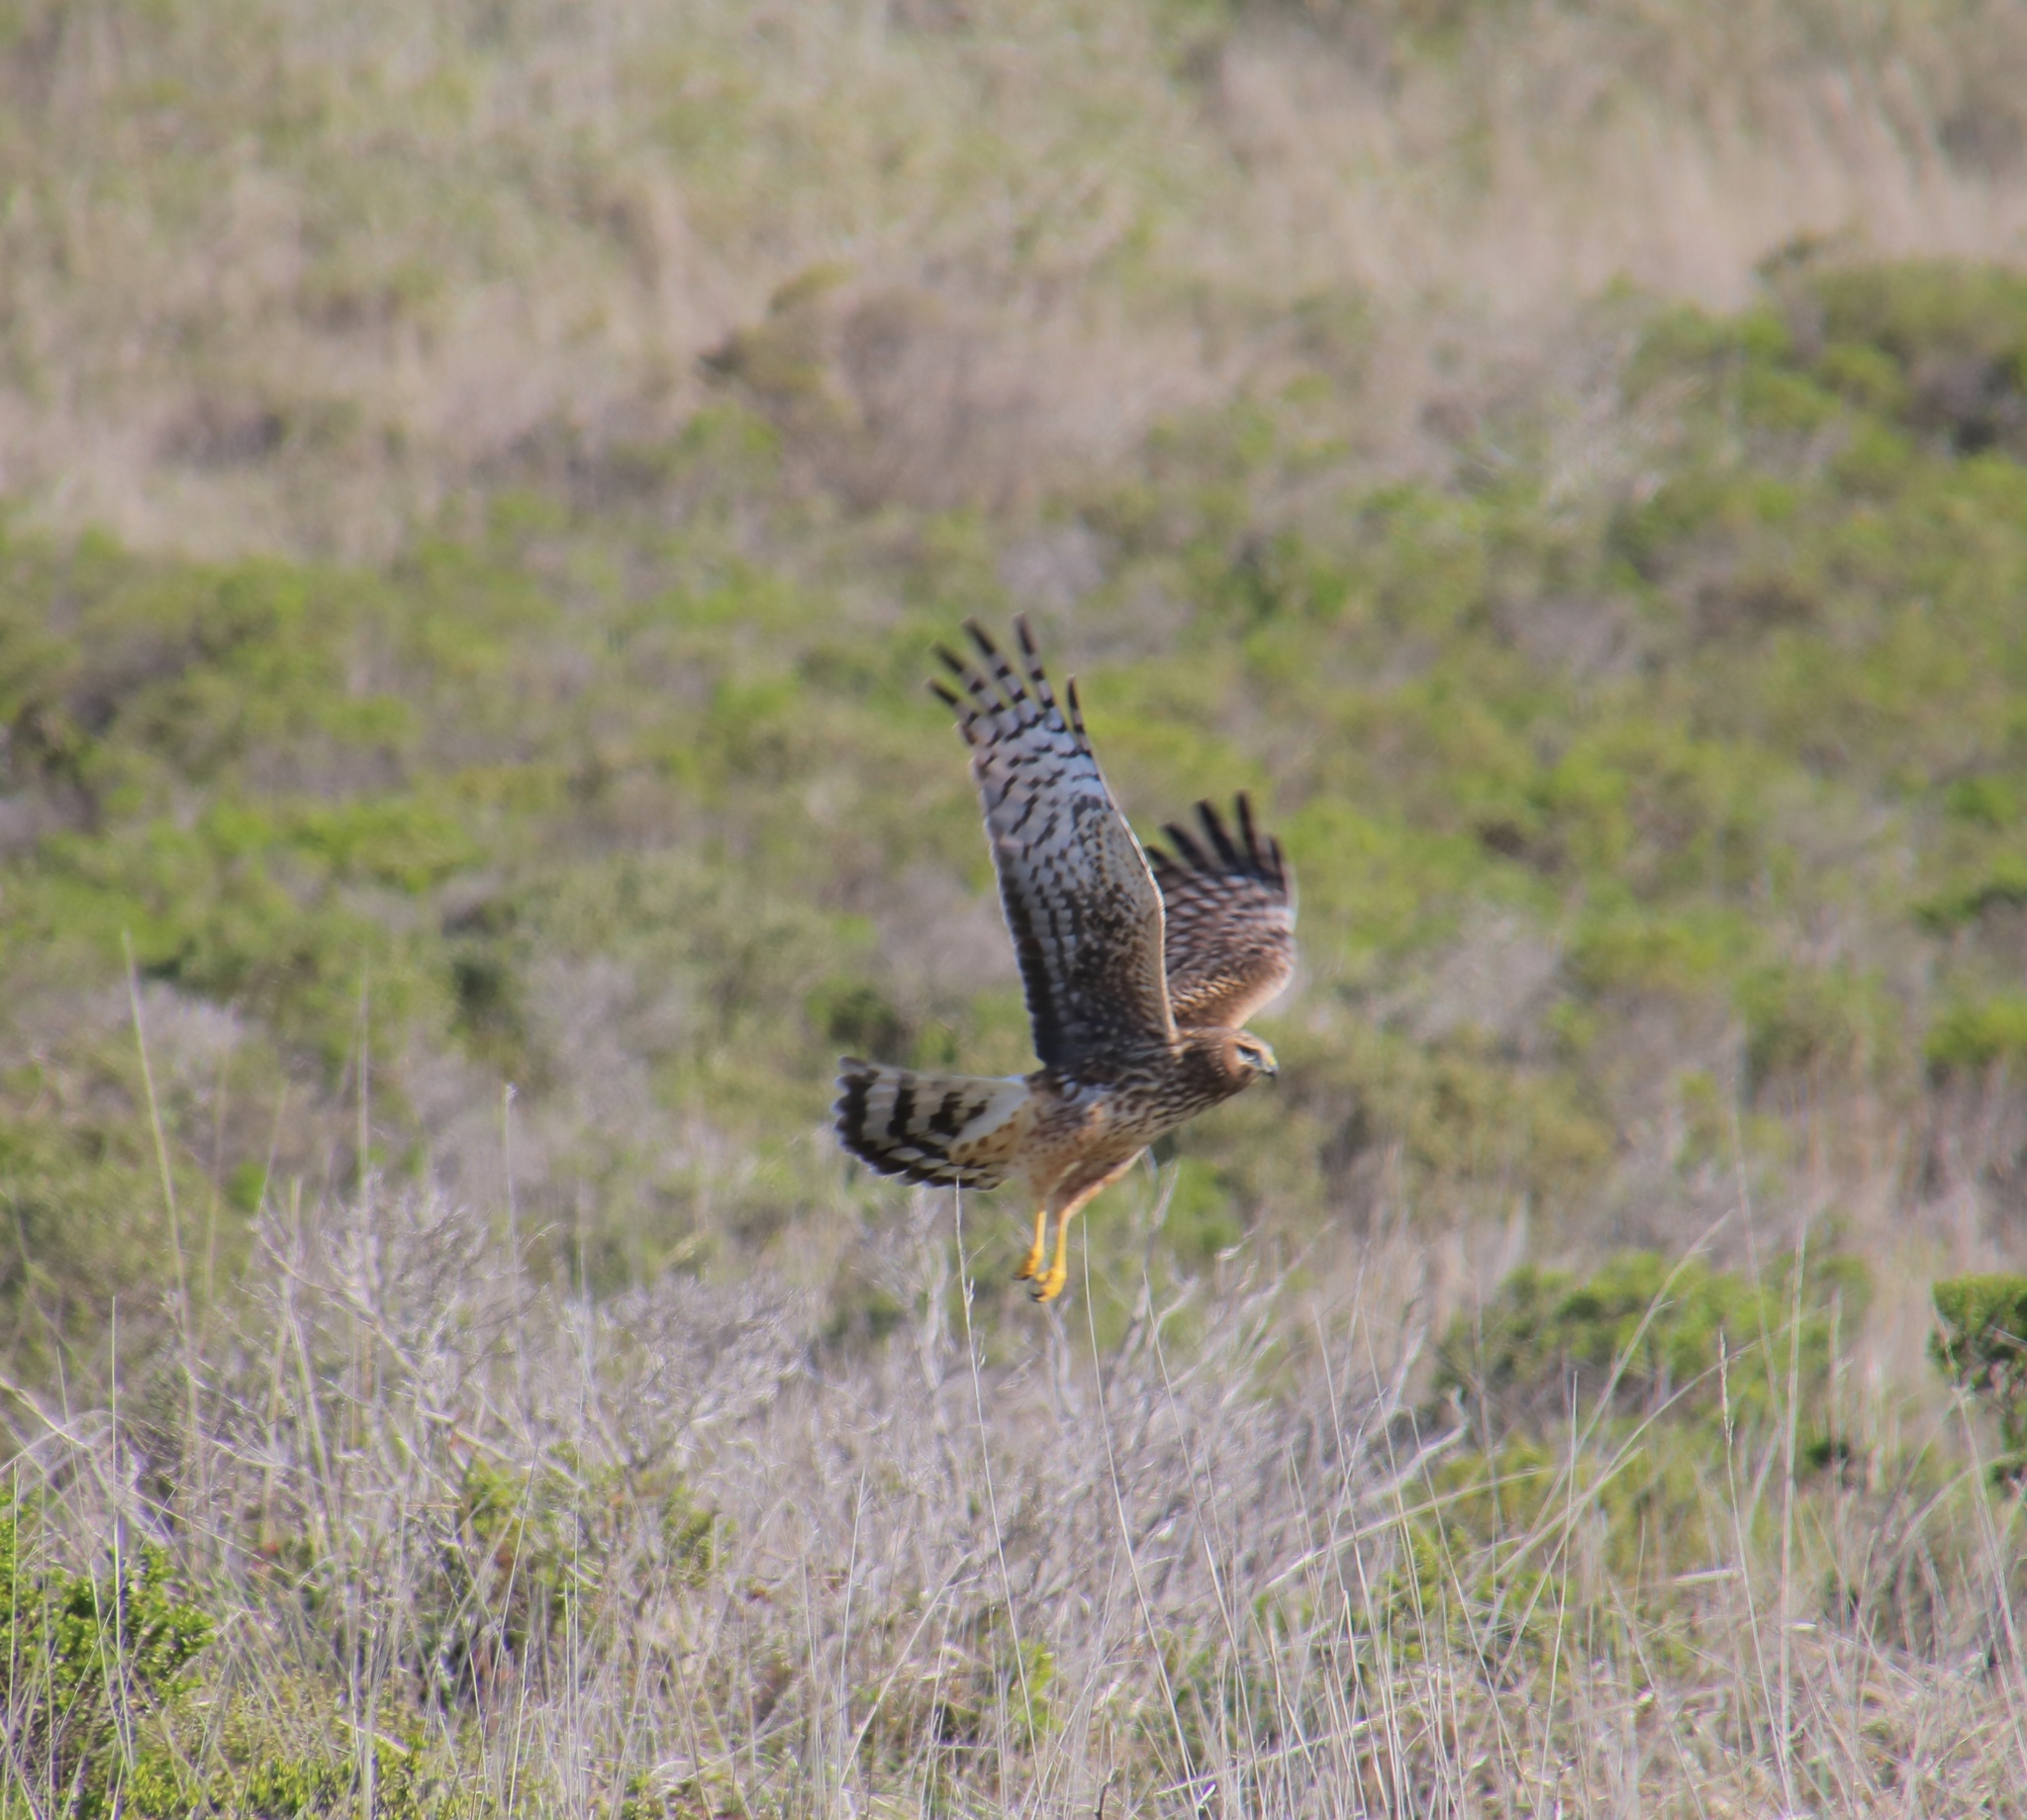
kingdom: Animalia
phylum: Chordata
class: Aves
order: Accipitriformes
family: Accipitridae
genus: Circus
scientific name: Circus cyaneus
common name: Hen harrier
